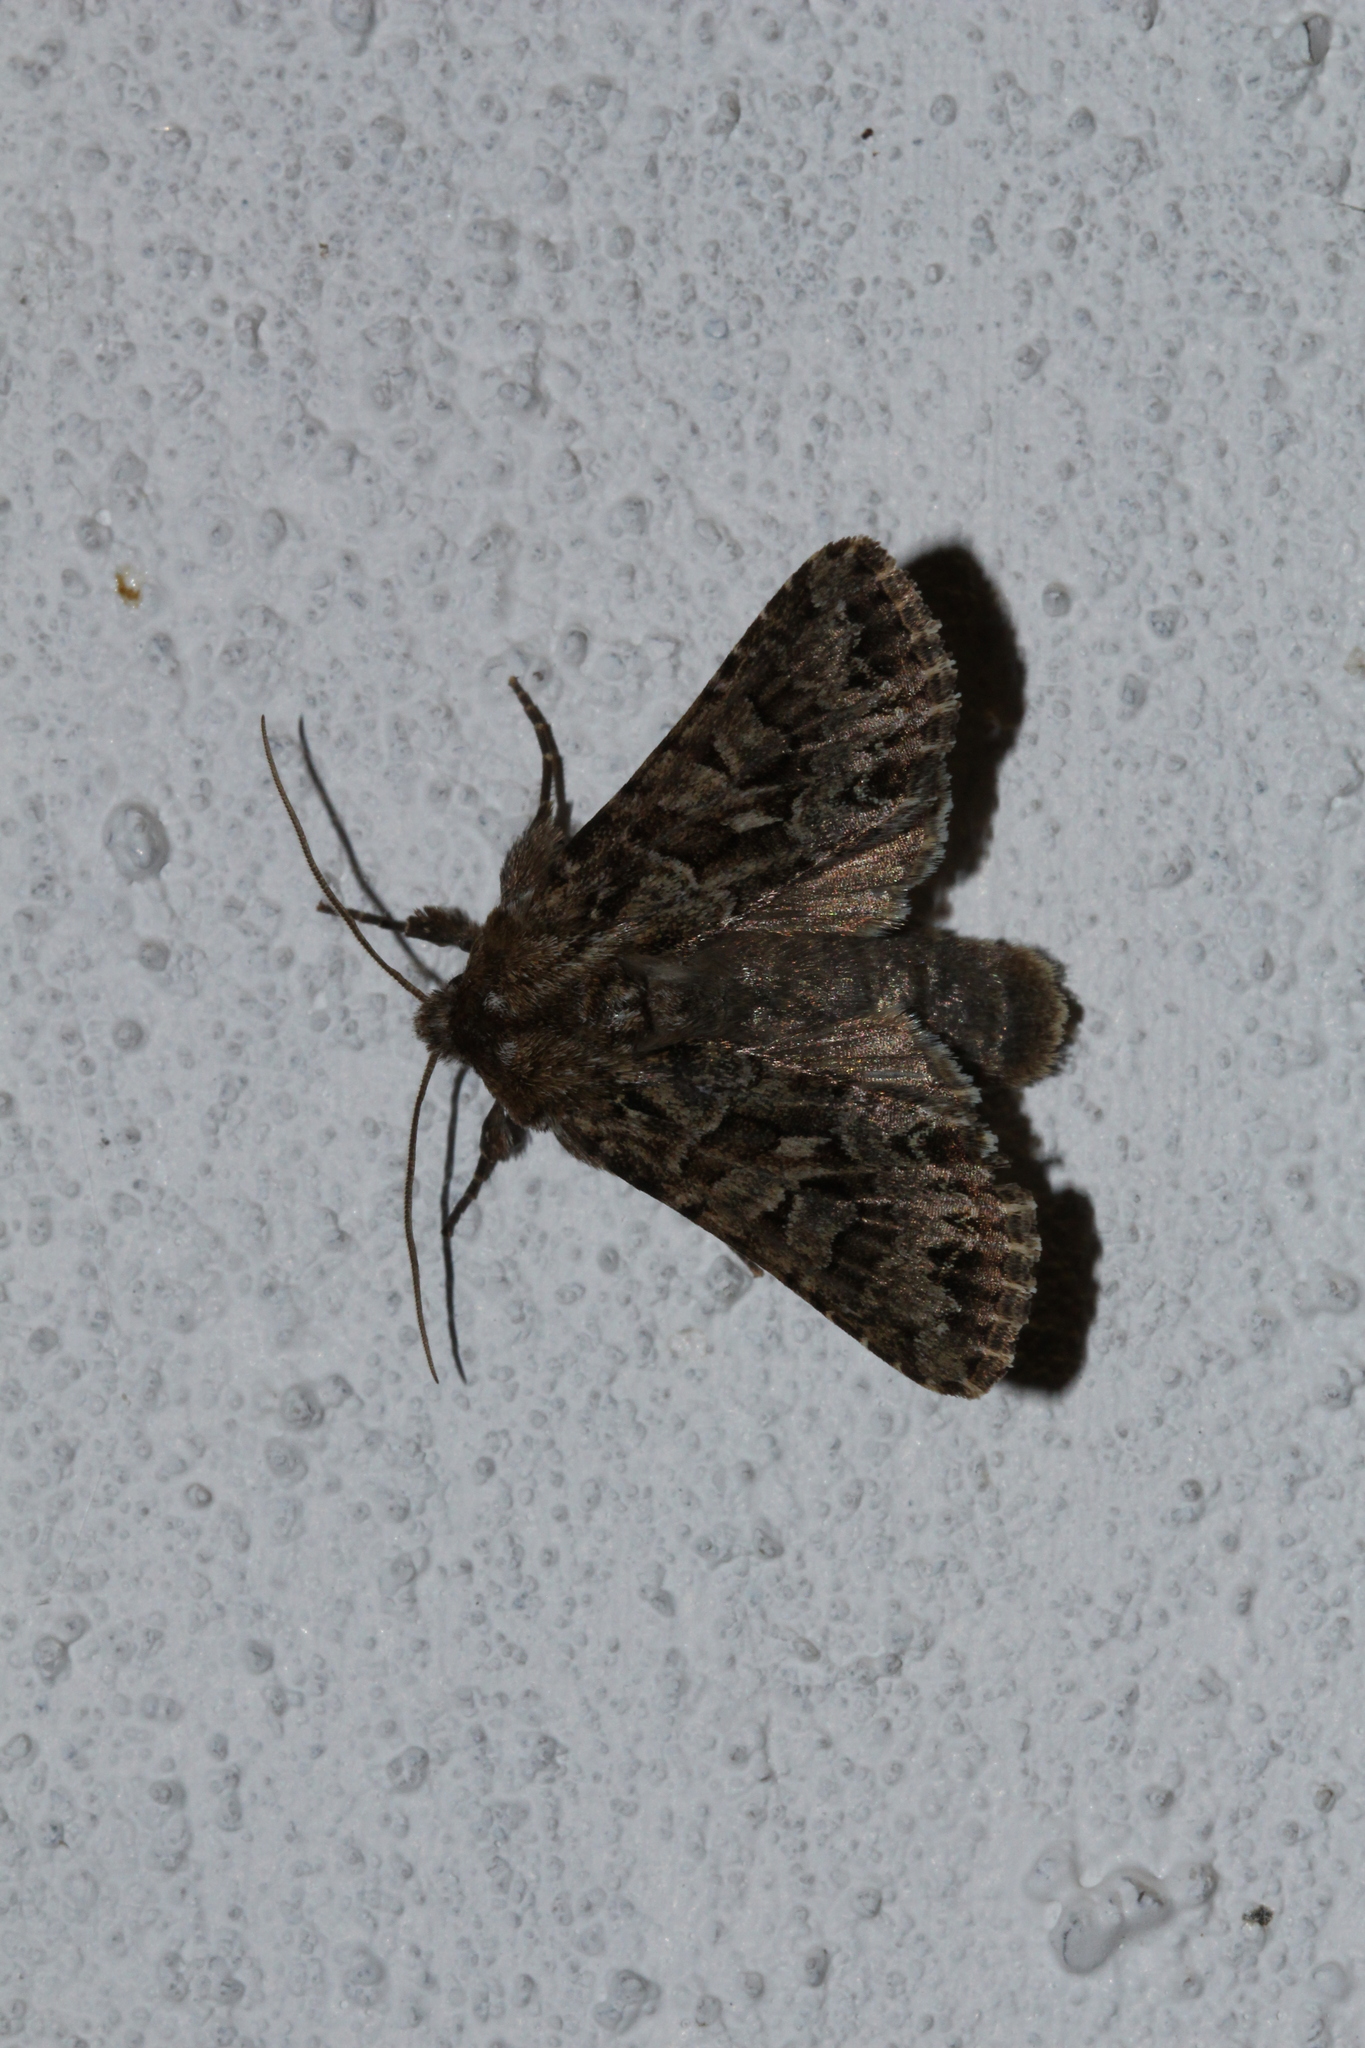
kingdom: Animalia
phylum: Arthropoda
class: Insecta
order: Lepidoptera
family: Noctuidae
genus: Hada
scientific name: Hada plebeja
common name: Shears
